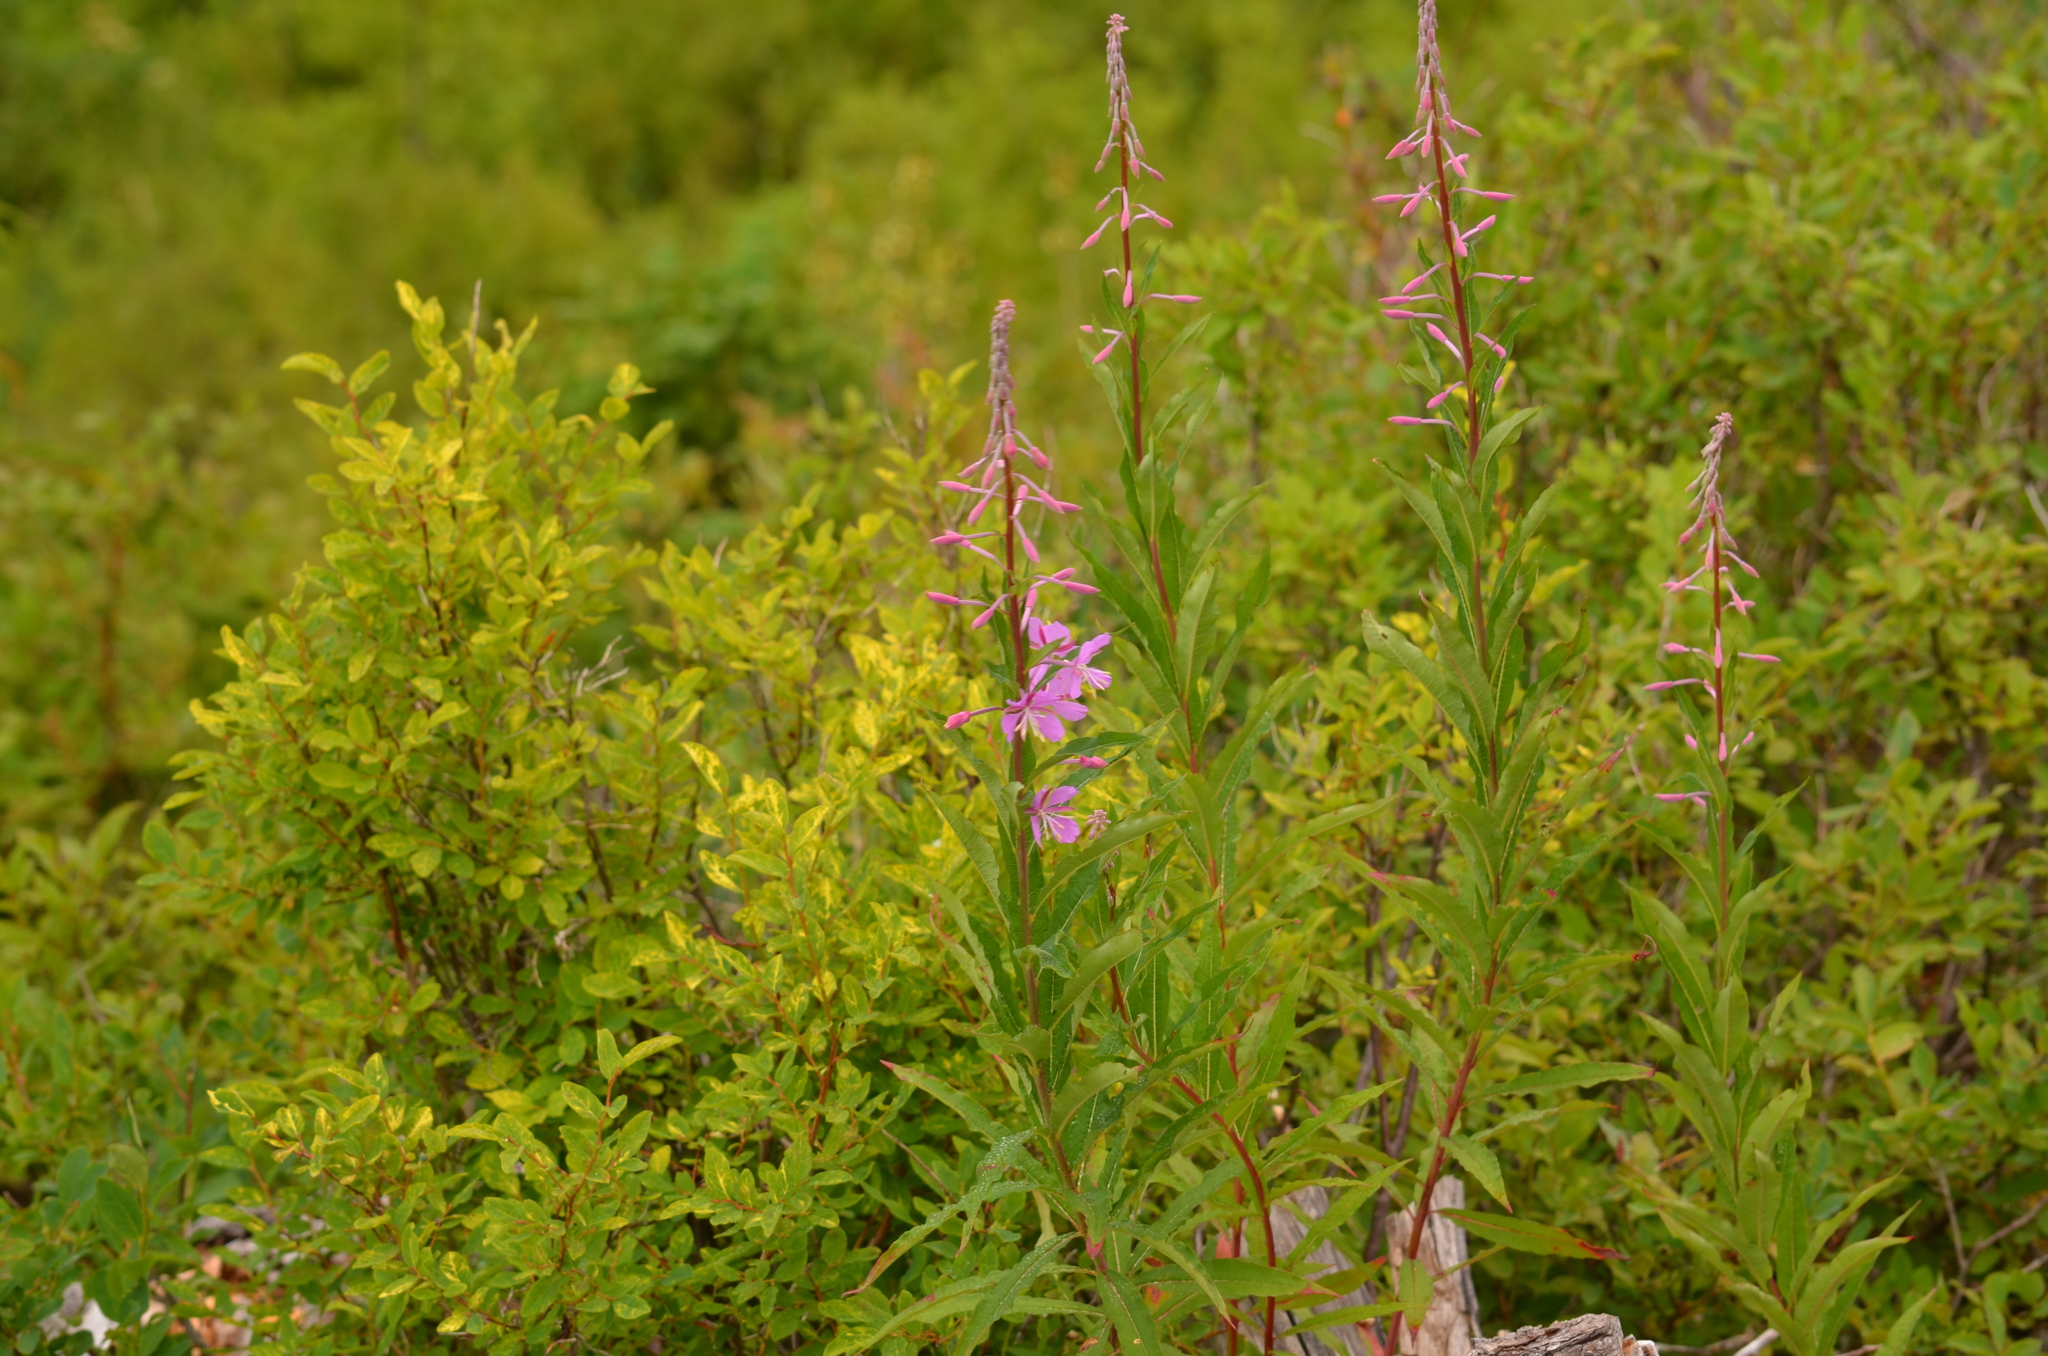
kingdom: Plantae
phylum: Tracheophyta
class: Magnoliopsida
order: Myrtales
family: Onagraceae
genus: Chamaenerion
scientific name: Chamaenerion angustifolium
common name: Fireweed
